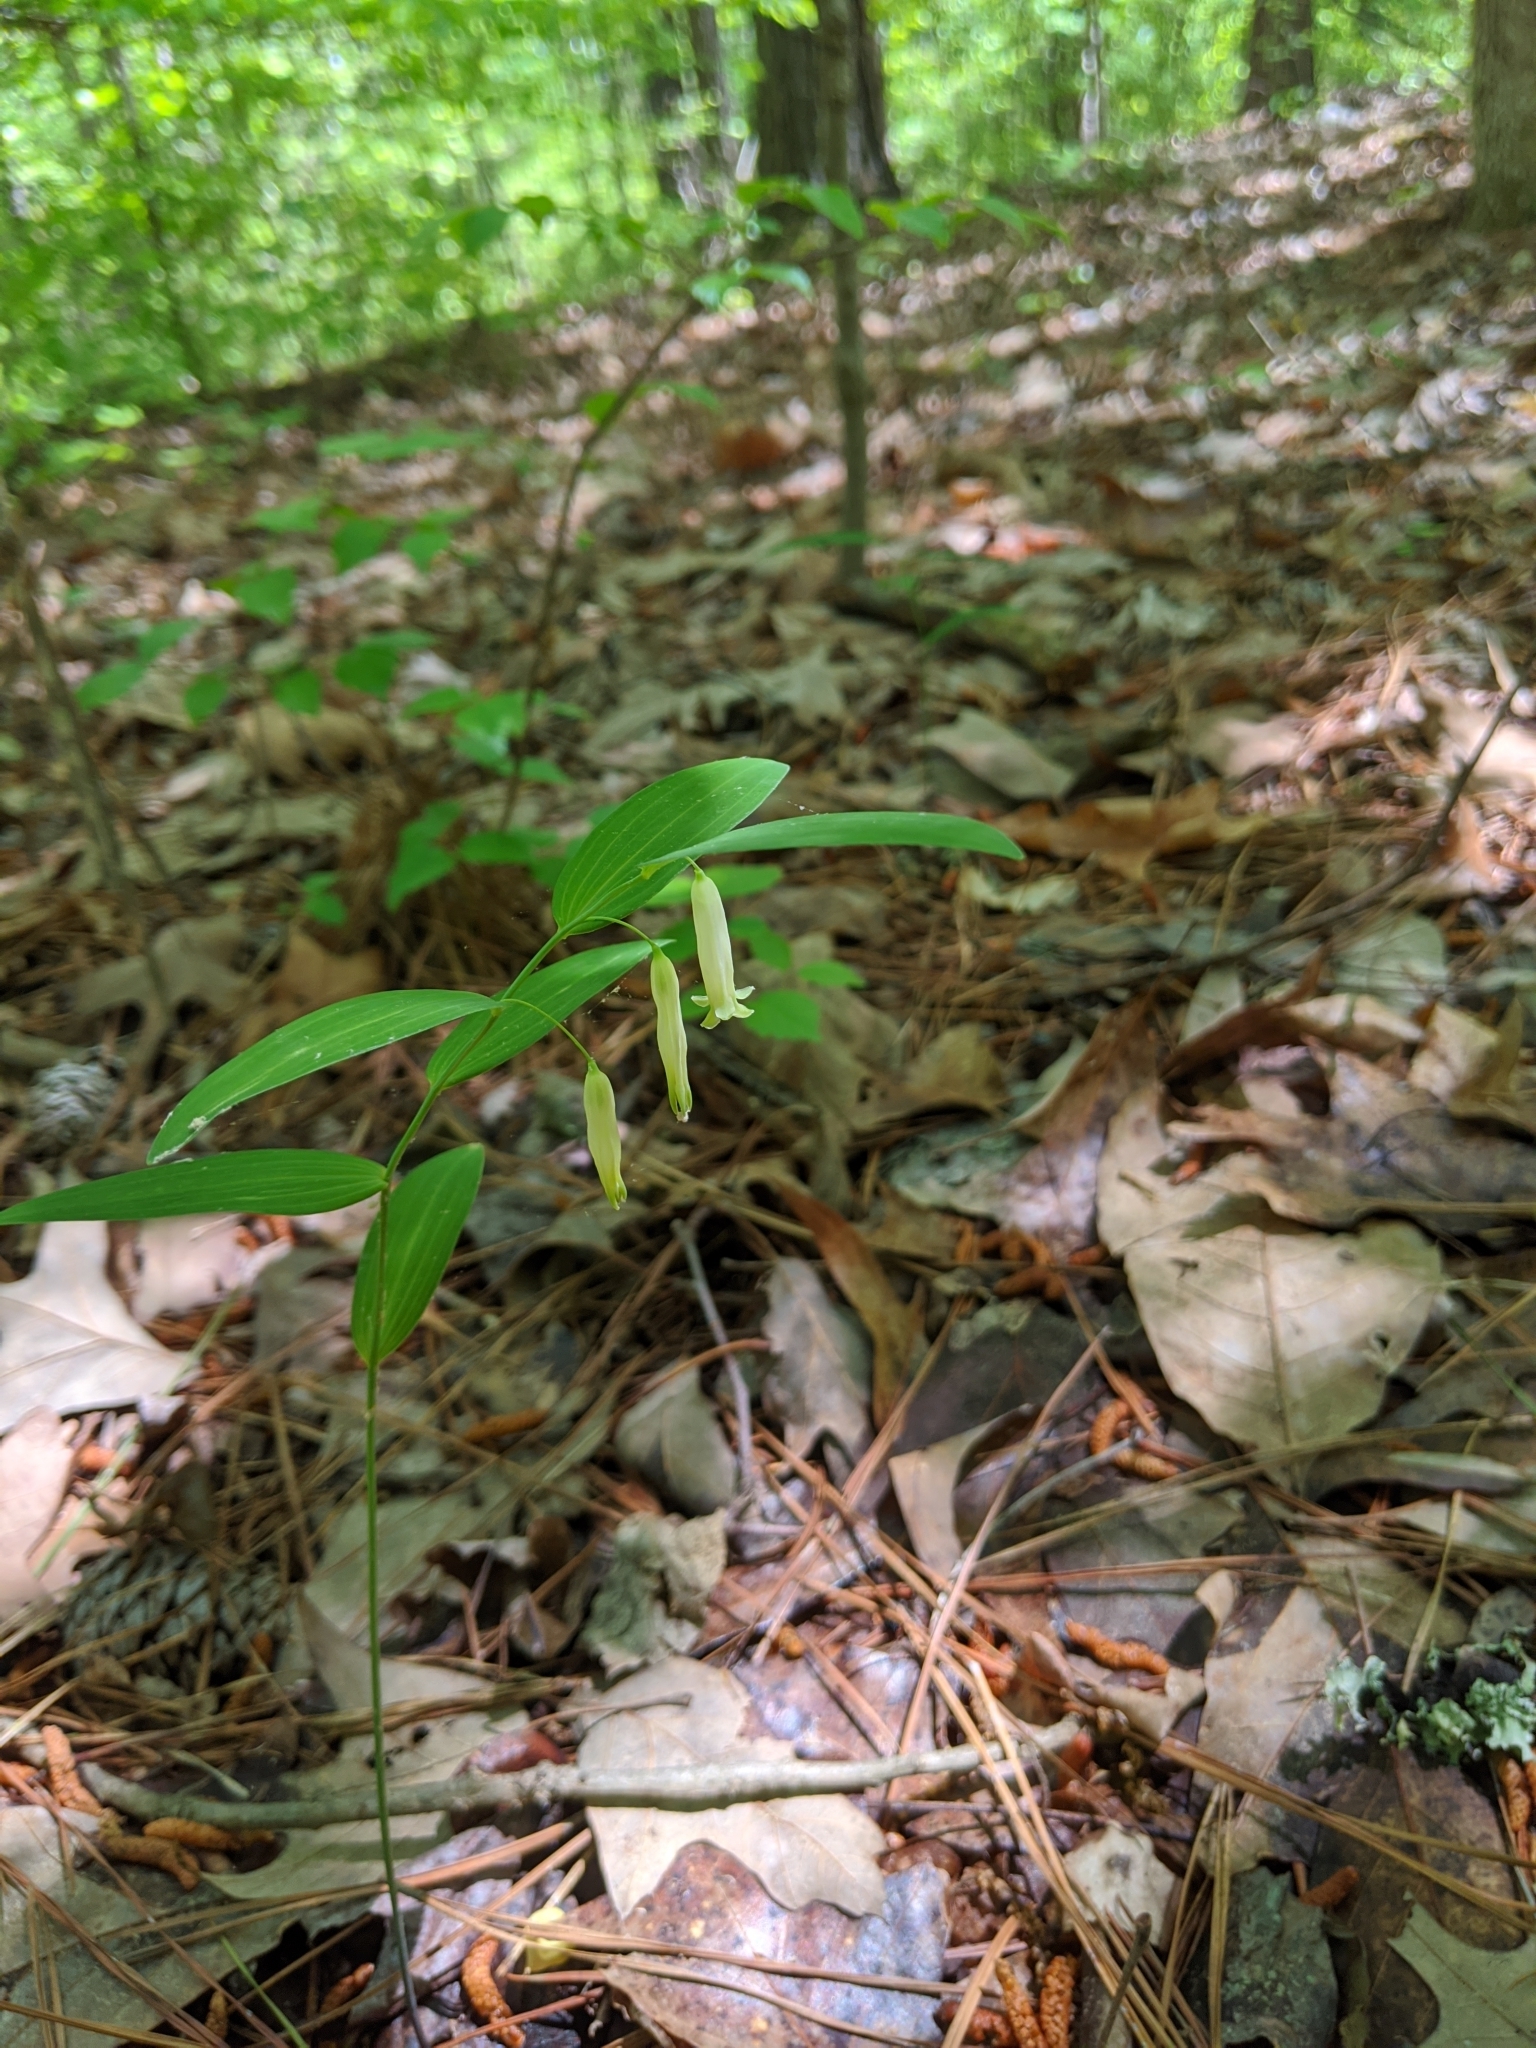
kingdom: Plantae
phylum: Tracheophyta
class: Liliopsida
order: Asparagales
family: Asparagaceae
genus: Polygonatum
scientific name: Polygonatum biflorum
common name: American solomon's-seal
